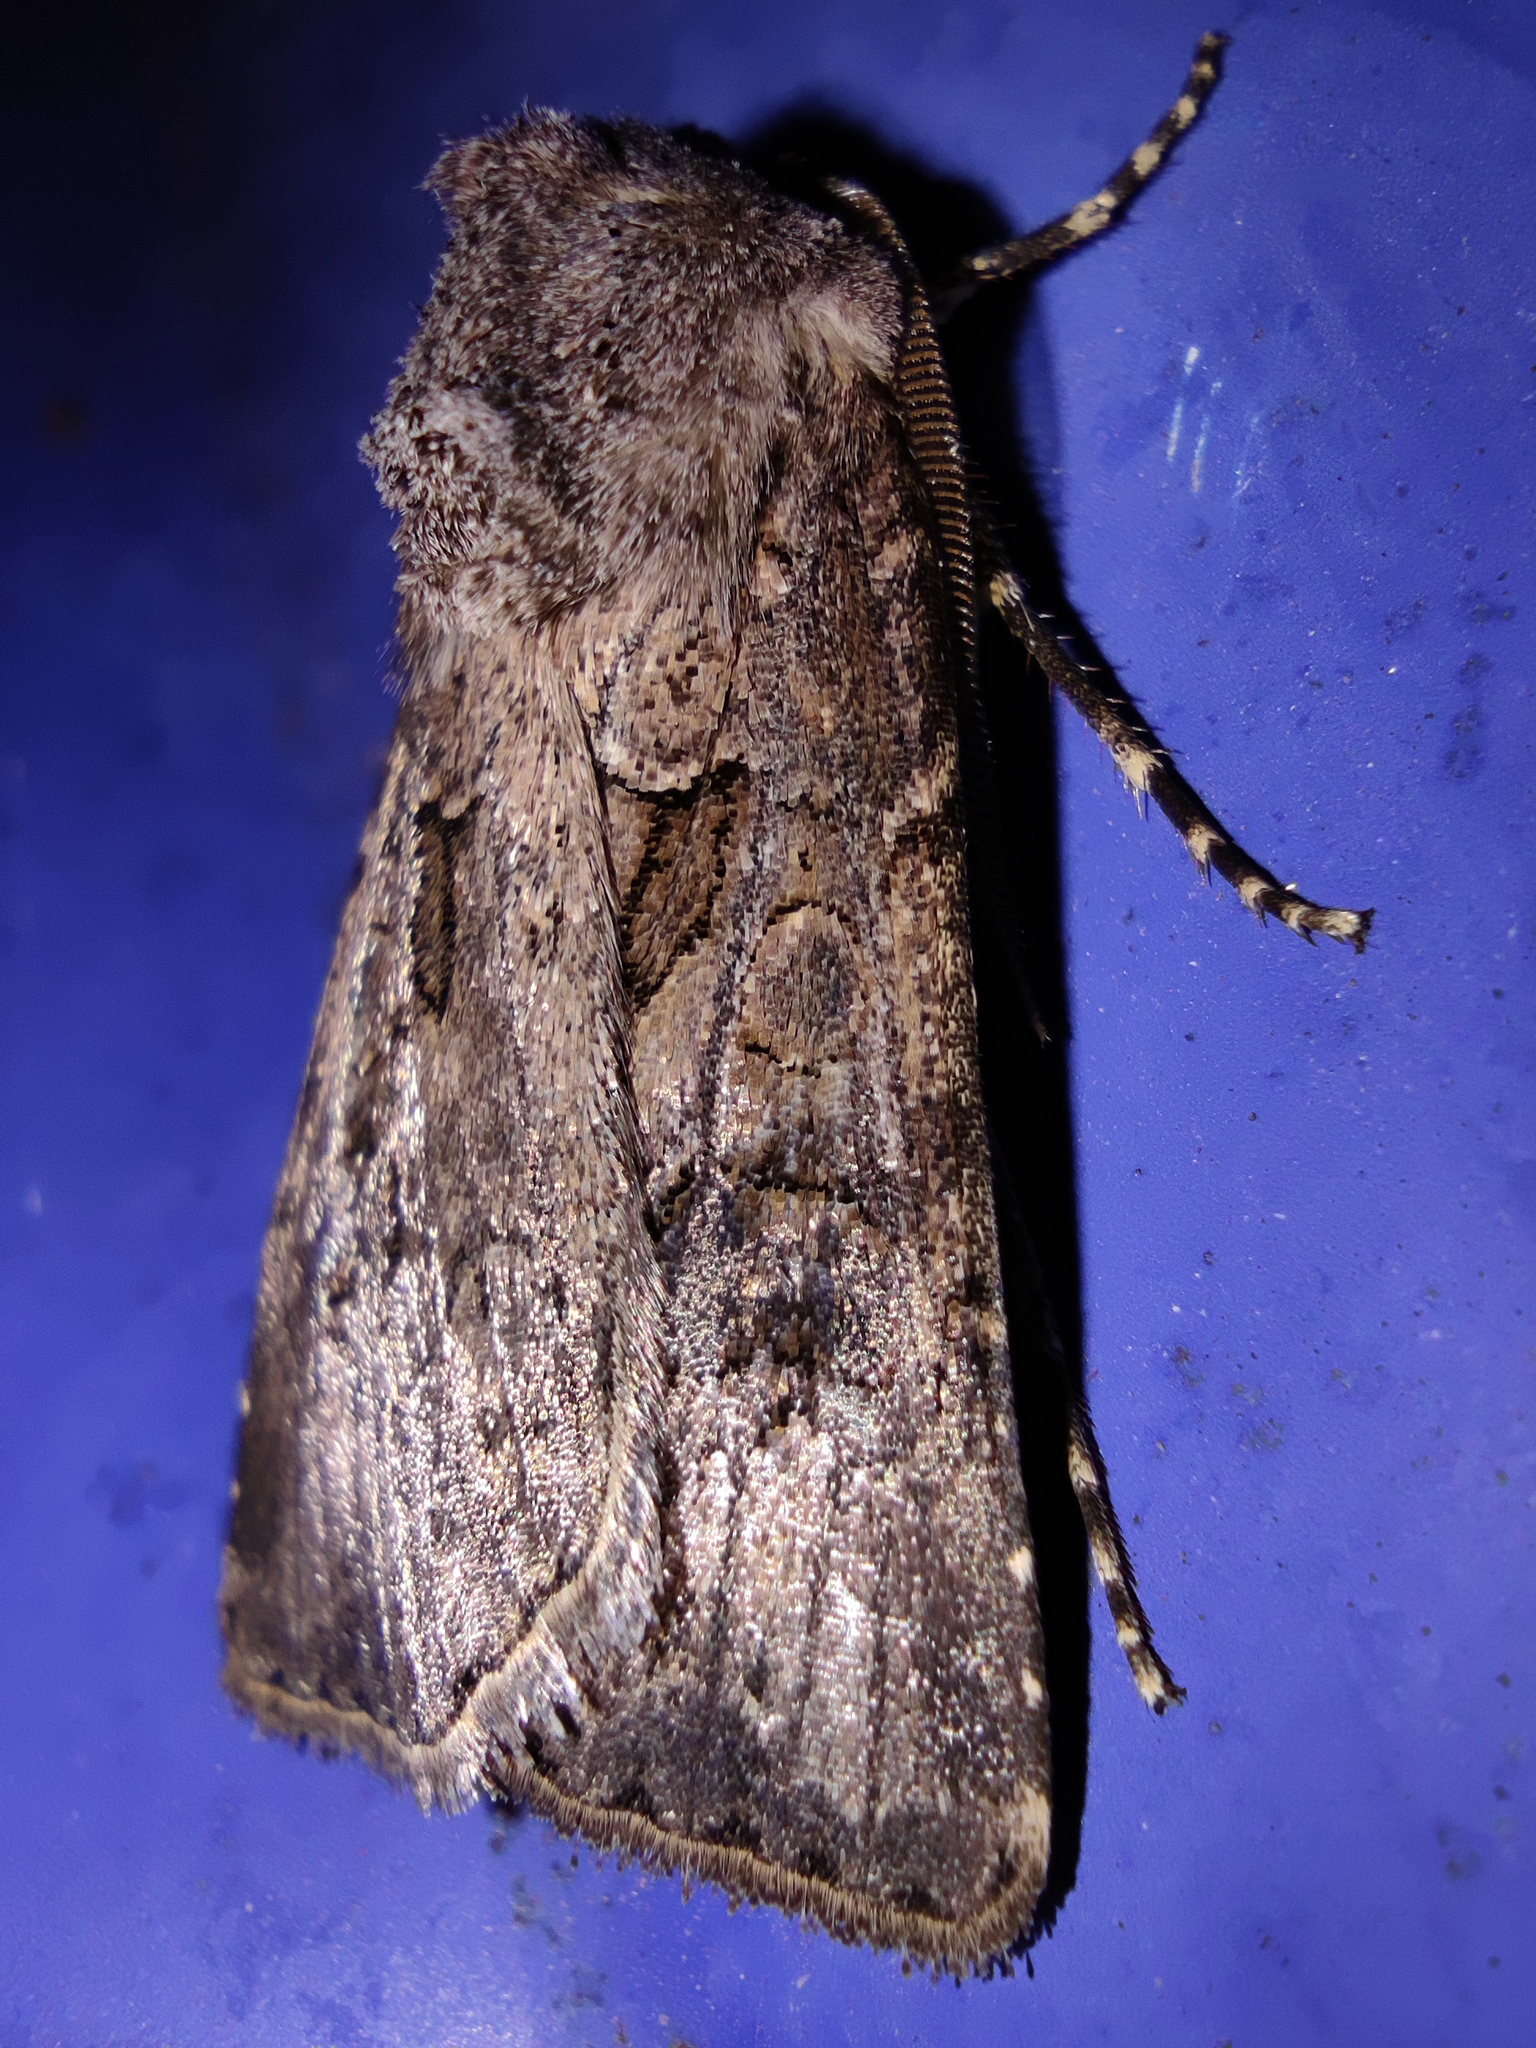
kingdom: Animalia
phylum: Arthropoda
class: Insecta
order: Lepidoptera
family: Noctuidae
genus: Agrotis
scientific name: Agrotis bigramma
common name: Great dart
